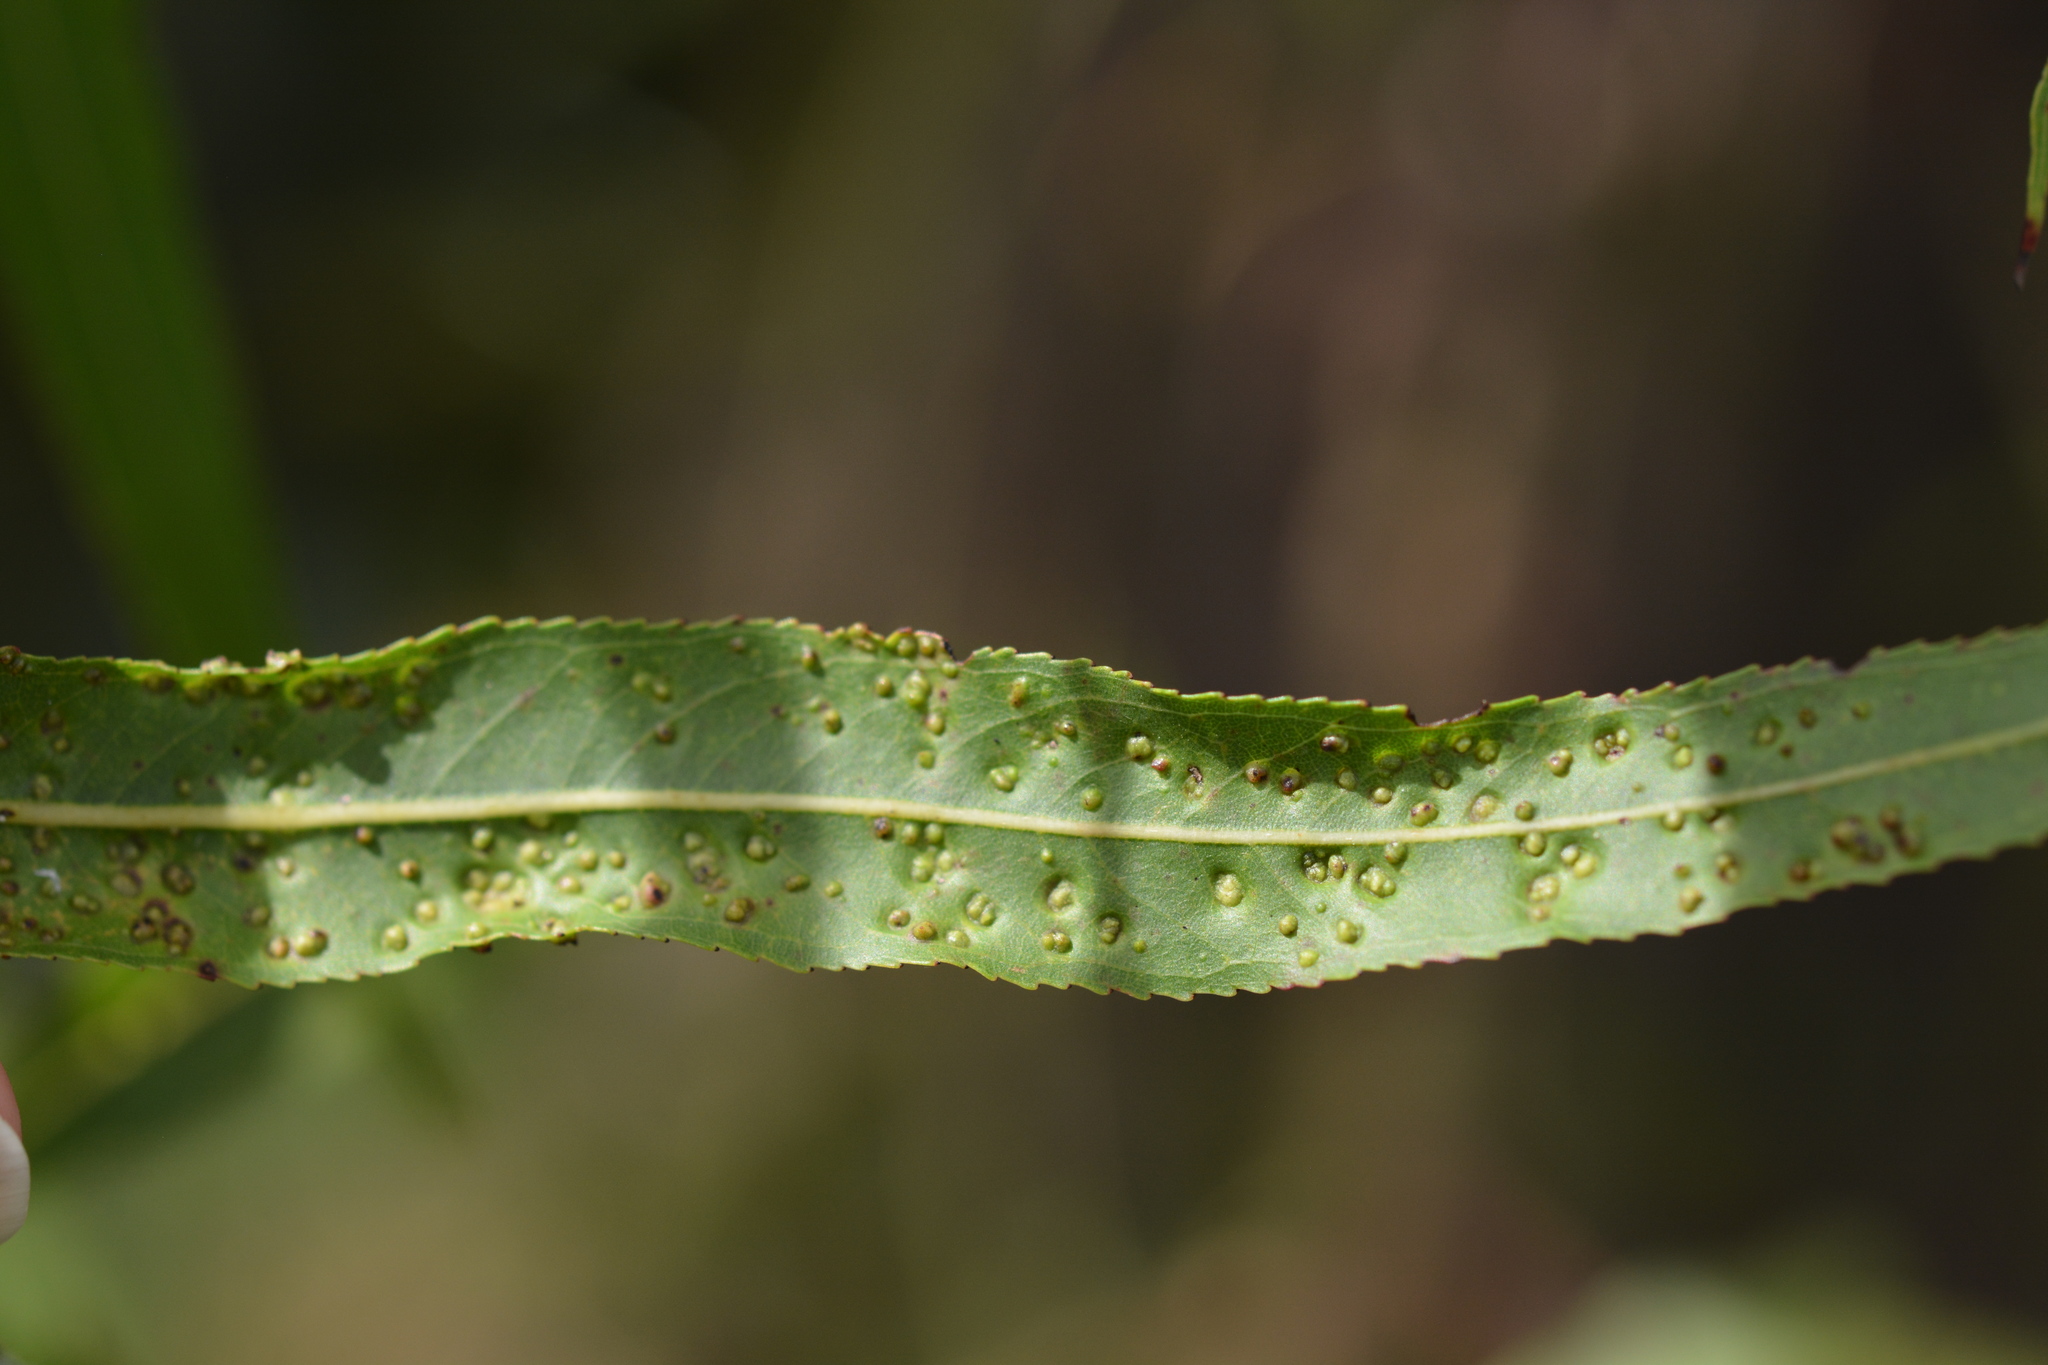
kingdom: Animalia
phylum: Arthropoda
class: Arachnida
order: Trombidiformes
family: Eriophyidae
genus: Aculus
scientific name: Aculus tetanothrix
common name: Willow bead gall mite
